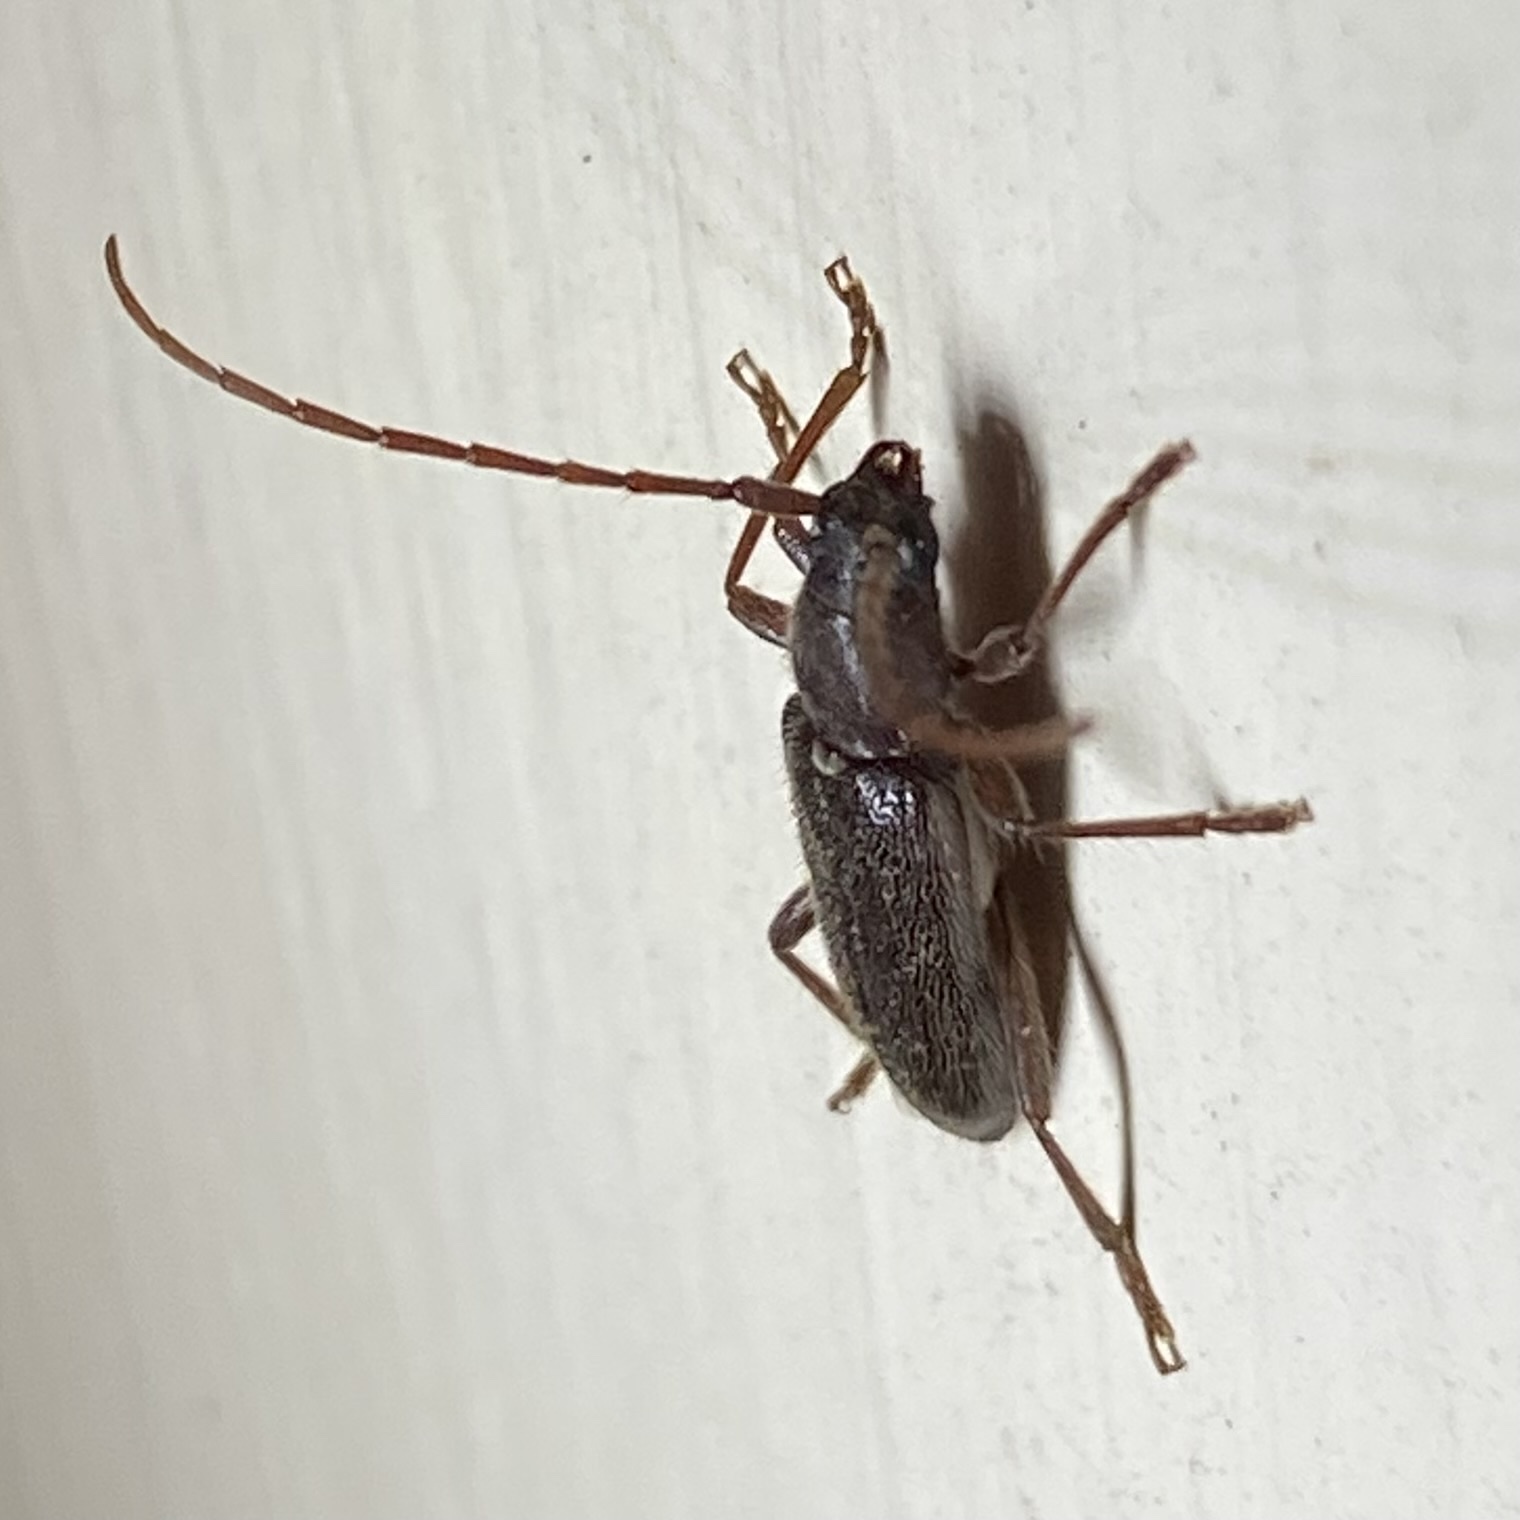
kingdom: Animalia
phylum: Arthropoda
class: Insecta
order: Coleoptera
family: Cerambycidae
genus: Anelaphus
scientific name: Anelaphus
